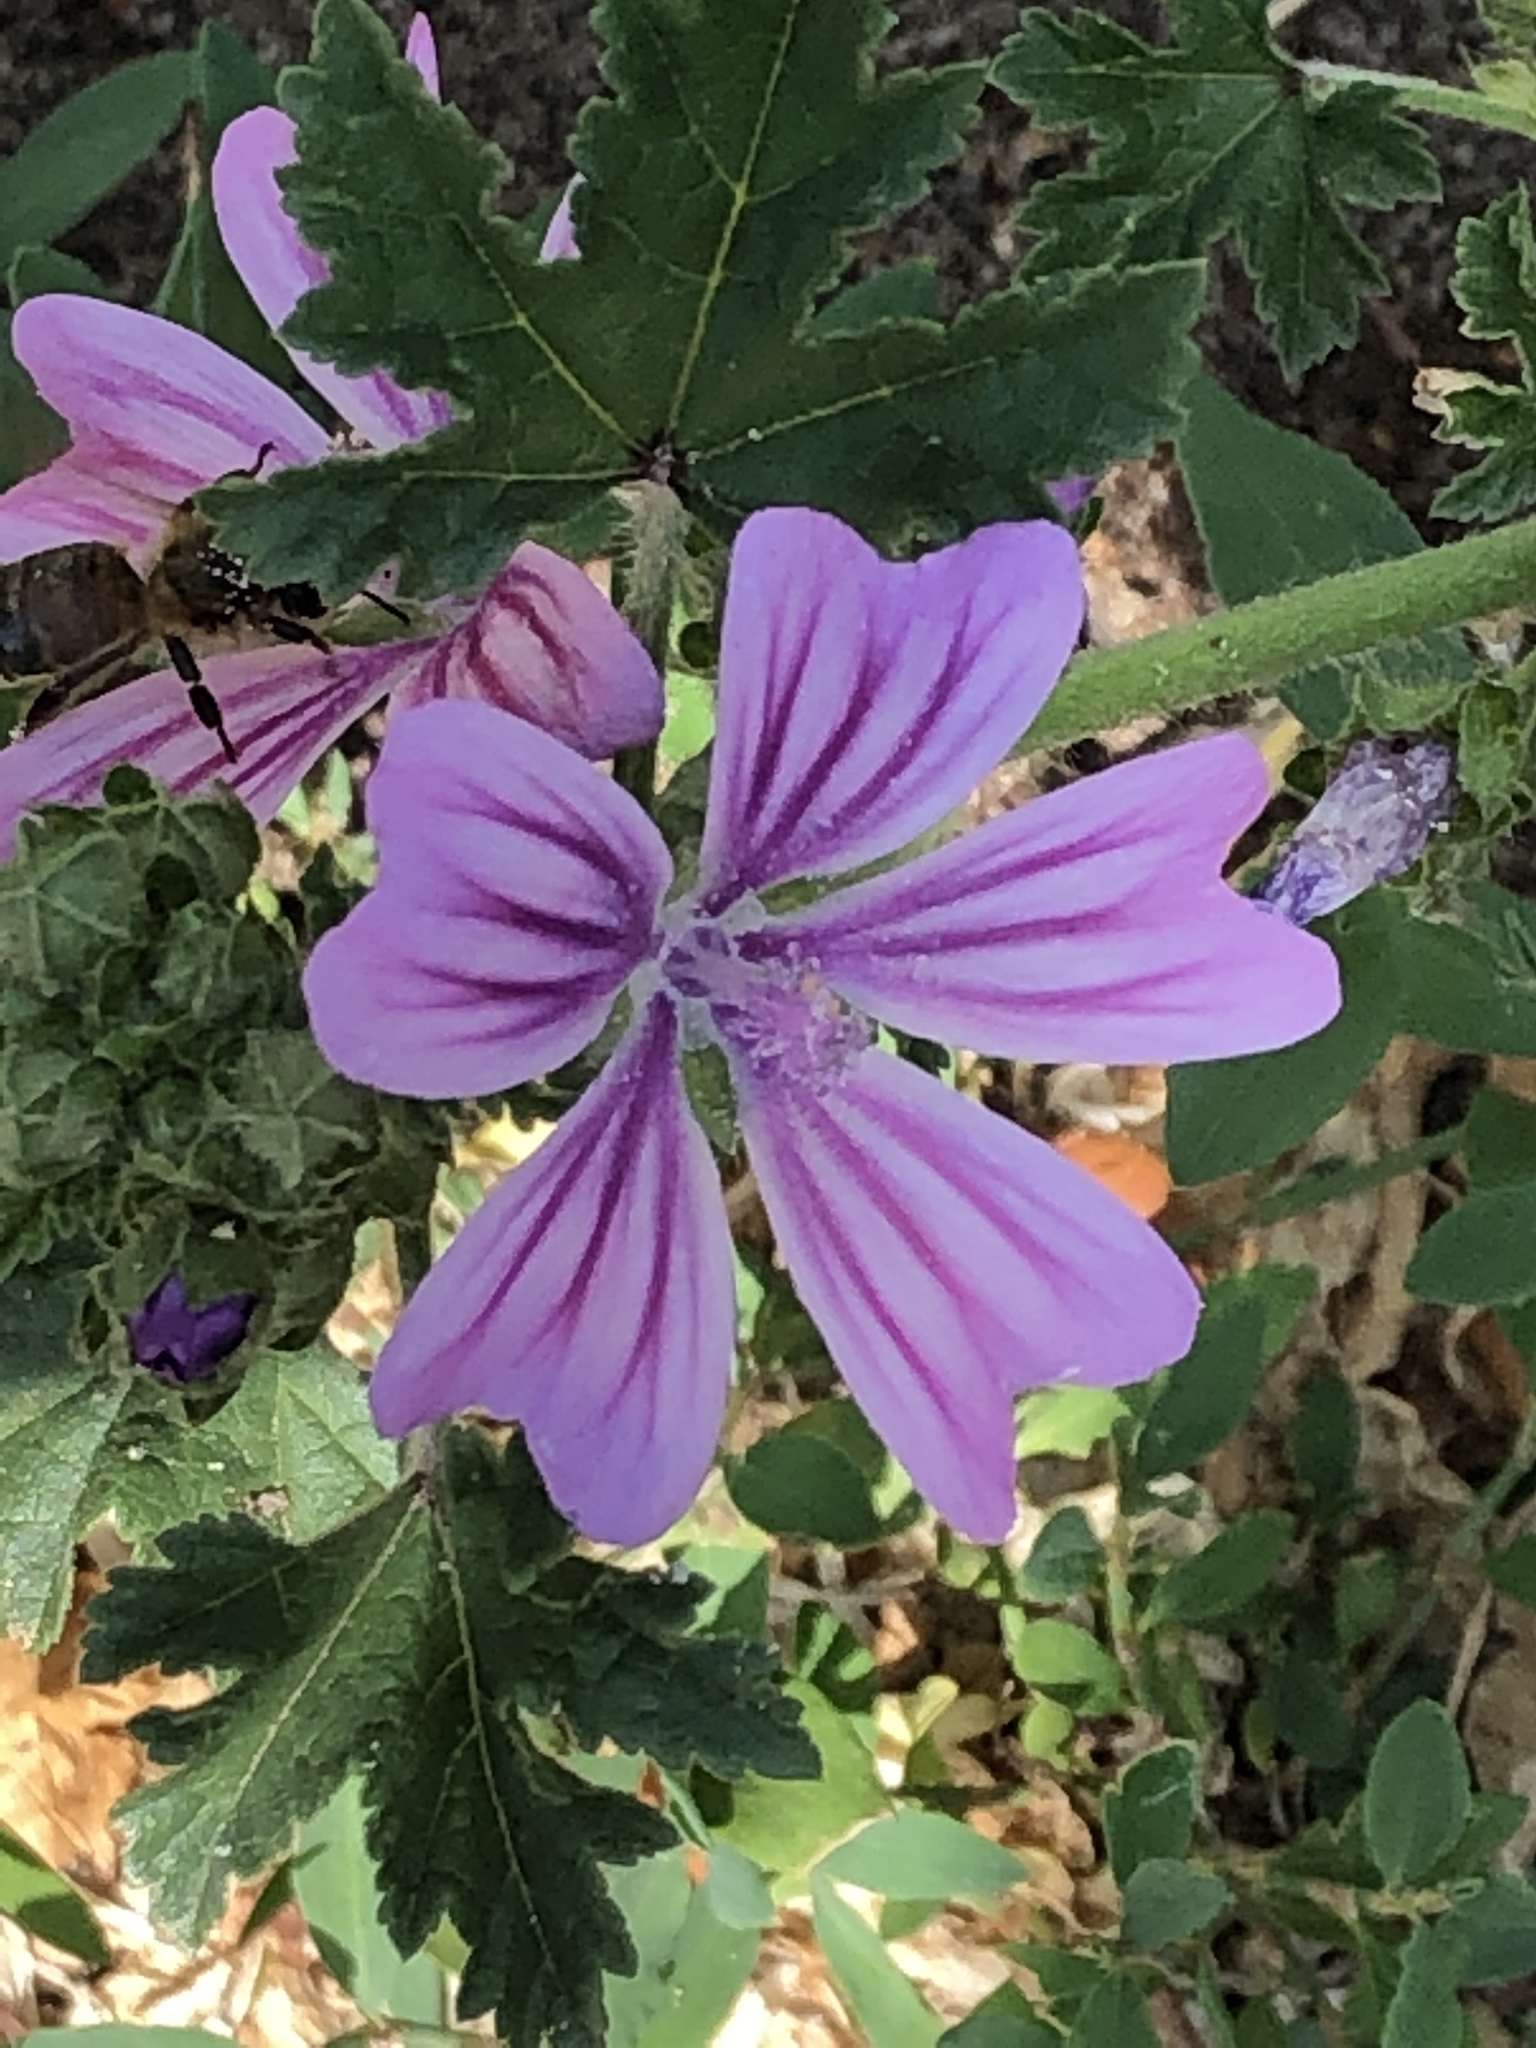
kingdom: Plantae
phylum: Tracheophyta
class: Magnoliopsida
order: Malvales
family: Malvaceae
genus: Malva
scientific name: Malva sylvestris
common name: Common mallow
